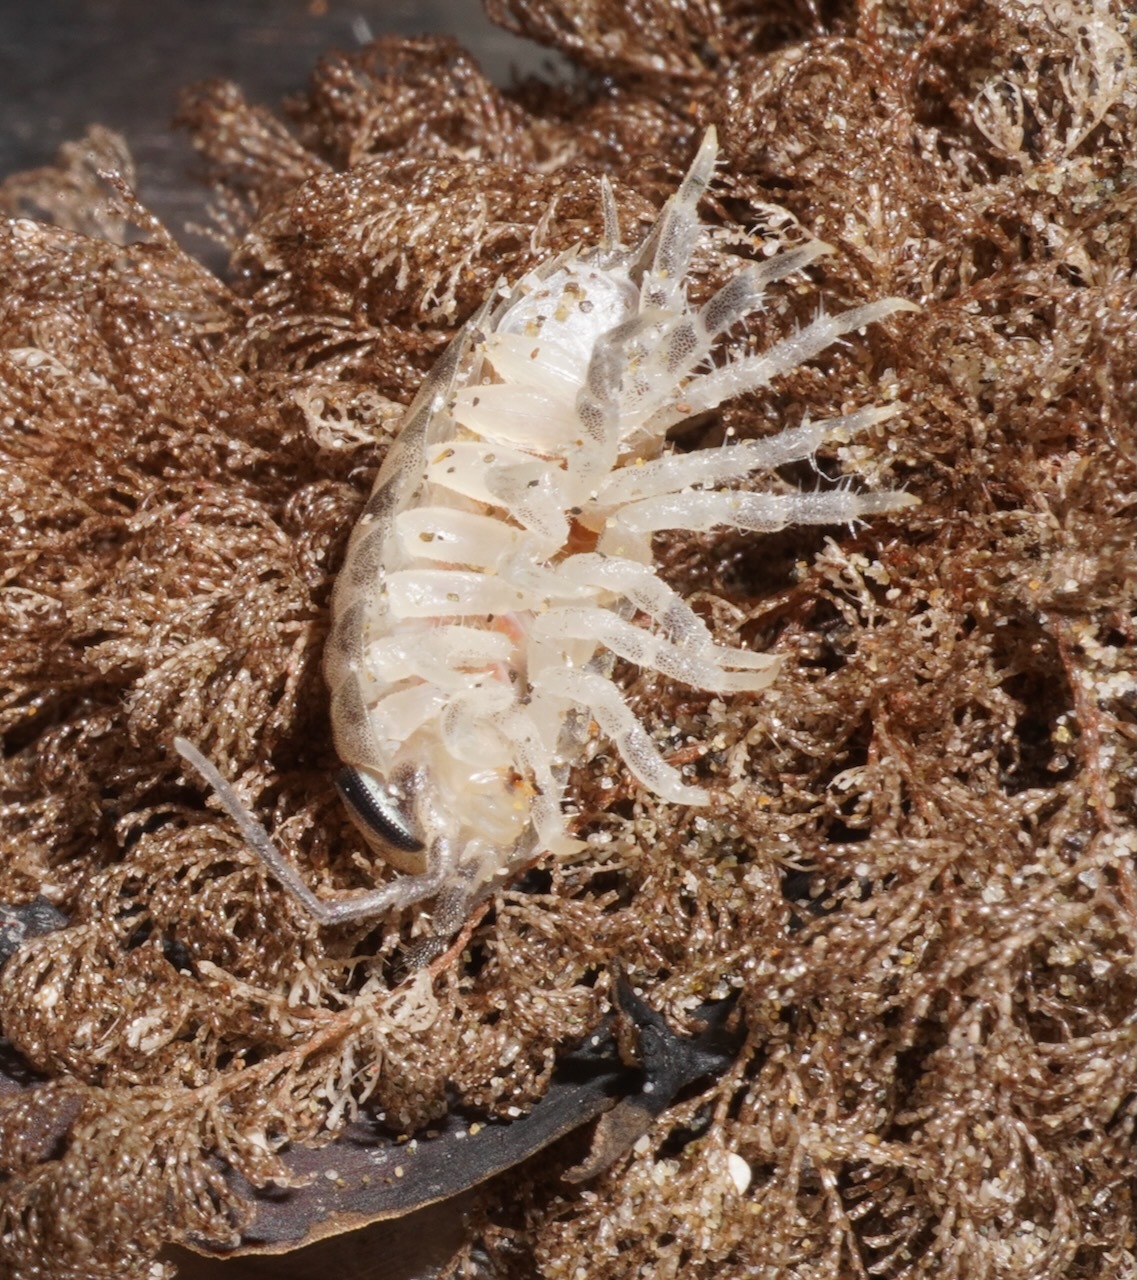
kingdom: Animalia
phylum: Arthropoda
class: Malacostraca
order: Isopoda
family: Scyphacidae
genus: Scyphax
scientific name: Scyphax ornatus
